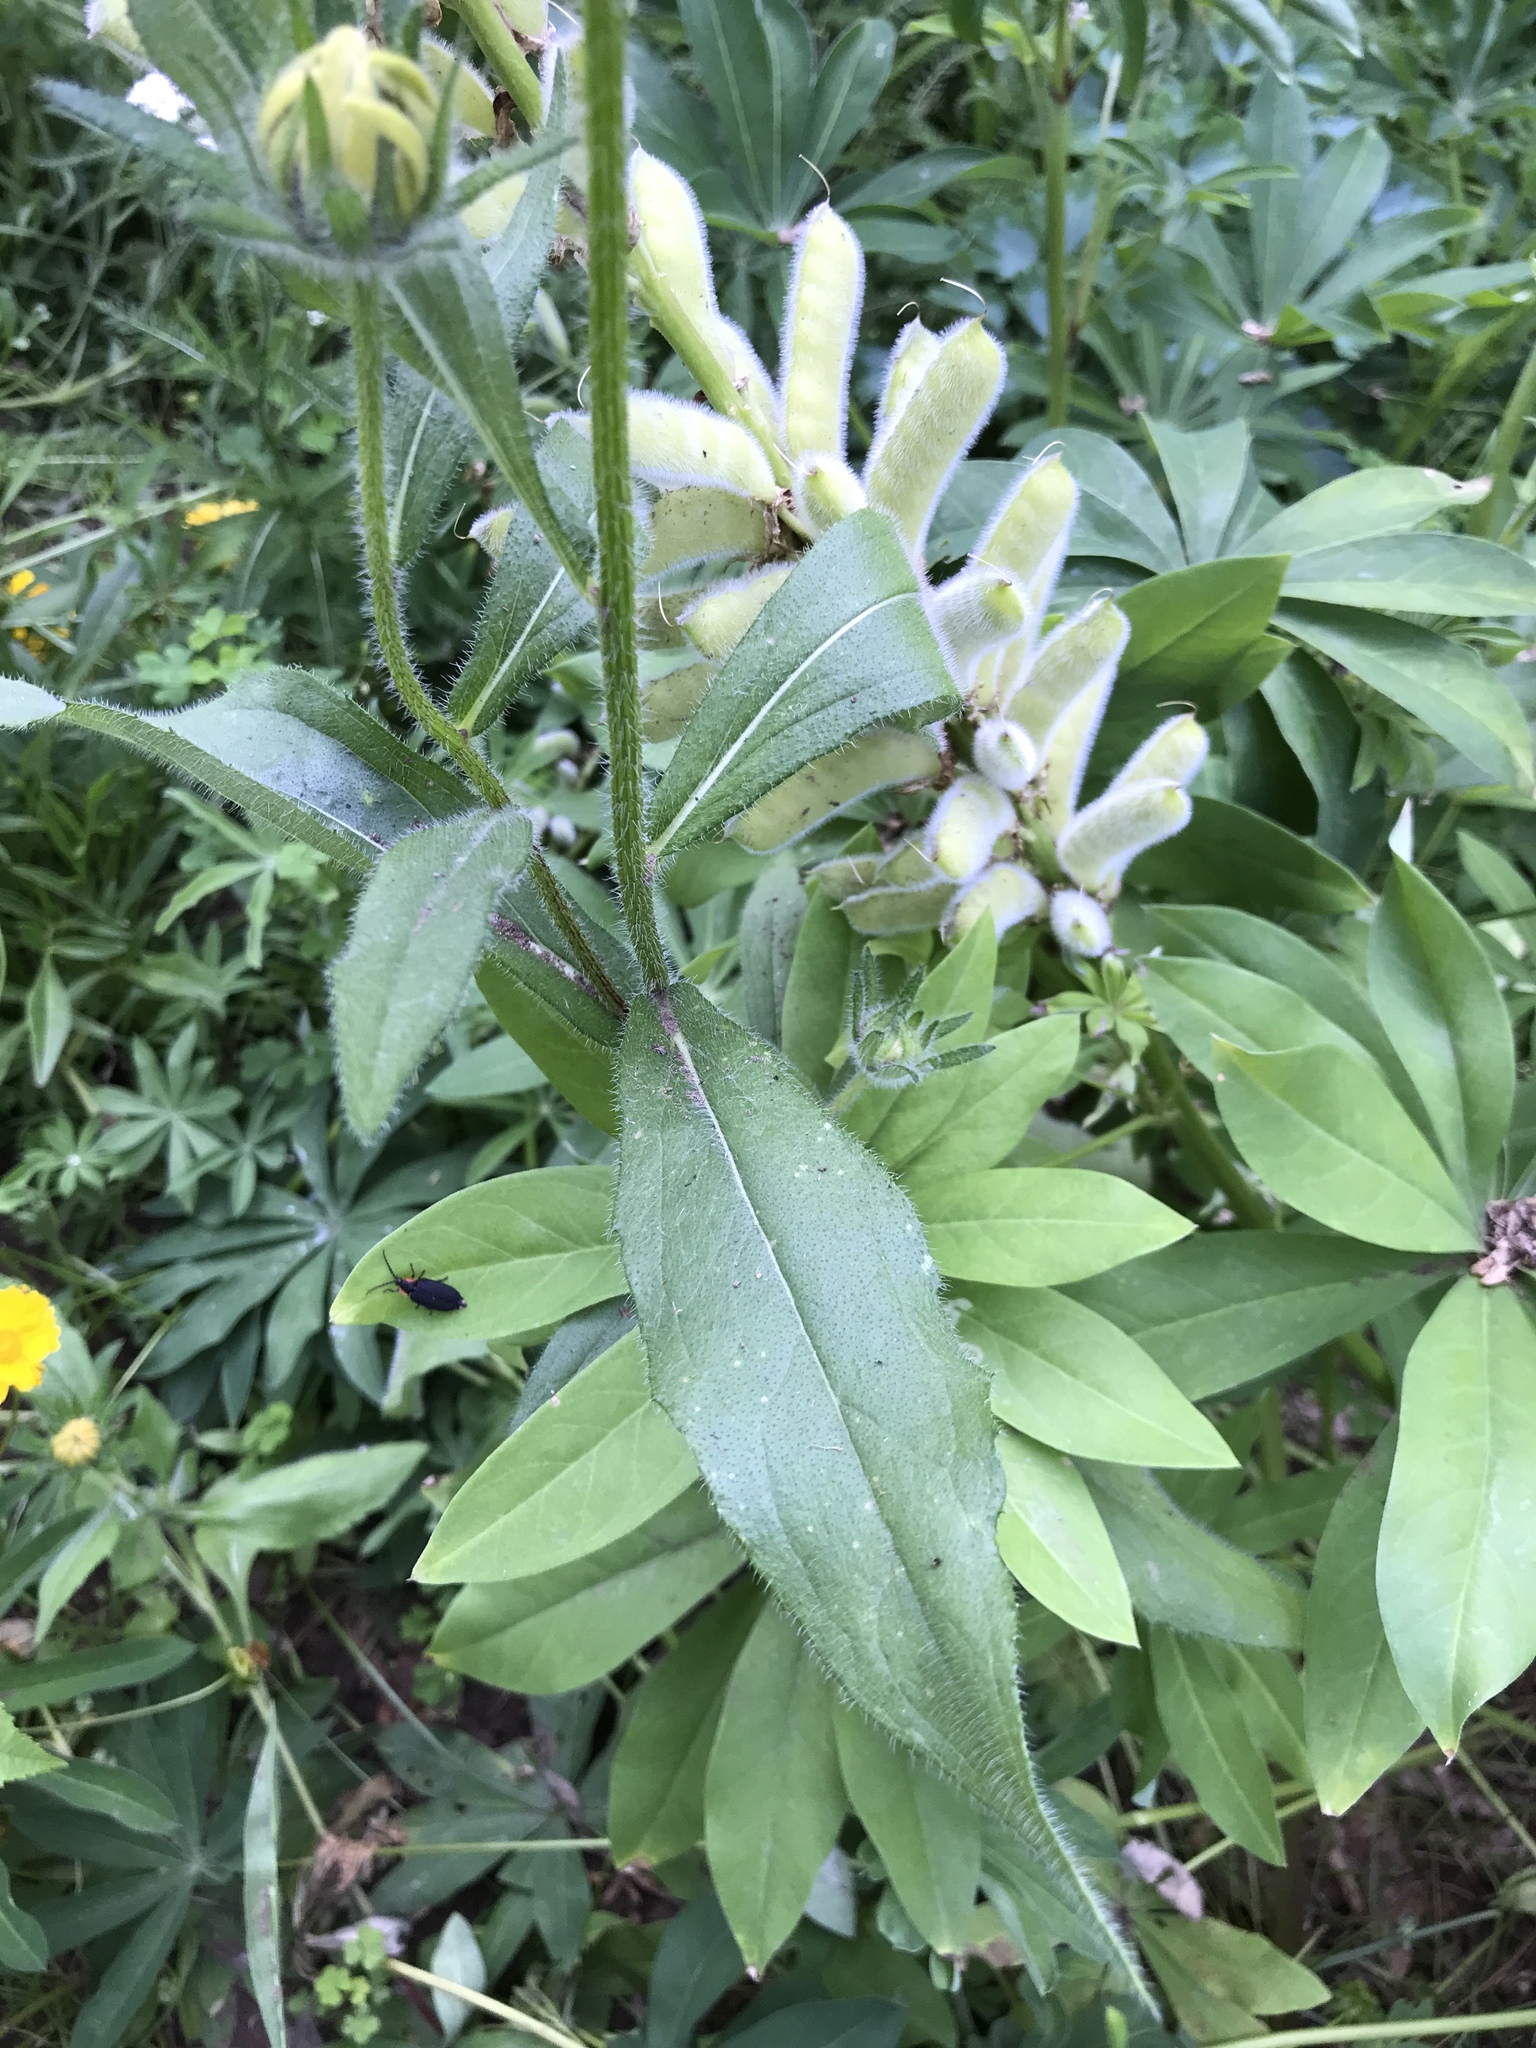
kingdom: Plantae
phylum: Tracheophyta
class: Magnoliopsida
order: Asterales
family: Asteraceae
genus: Rudbeckia
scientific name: Rudbeckia hirta
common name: Black-eyed-susan
